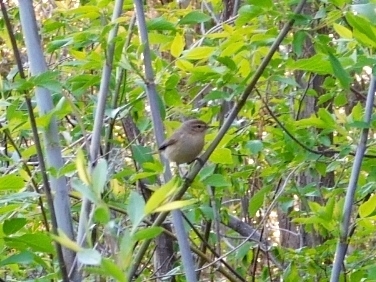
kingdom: Animalia
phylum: Chordata
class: Aves
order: Passeriformes
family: Phylloscopidae
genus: Phylloscopus
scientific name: Phylloscopus collybita
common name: Common chiffchaff
